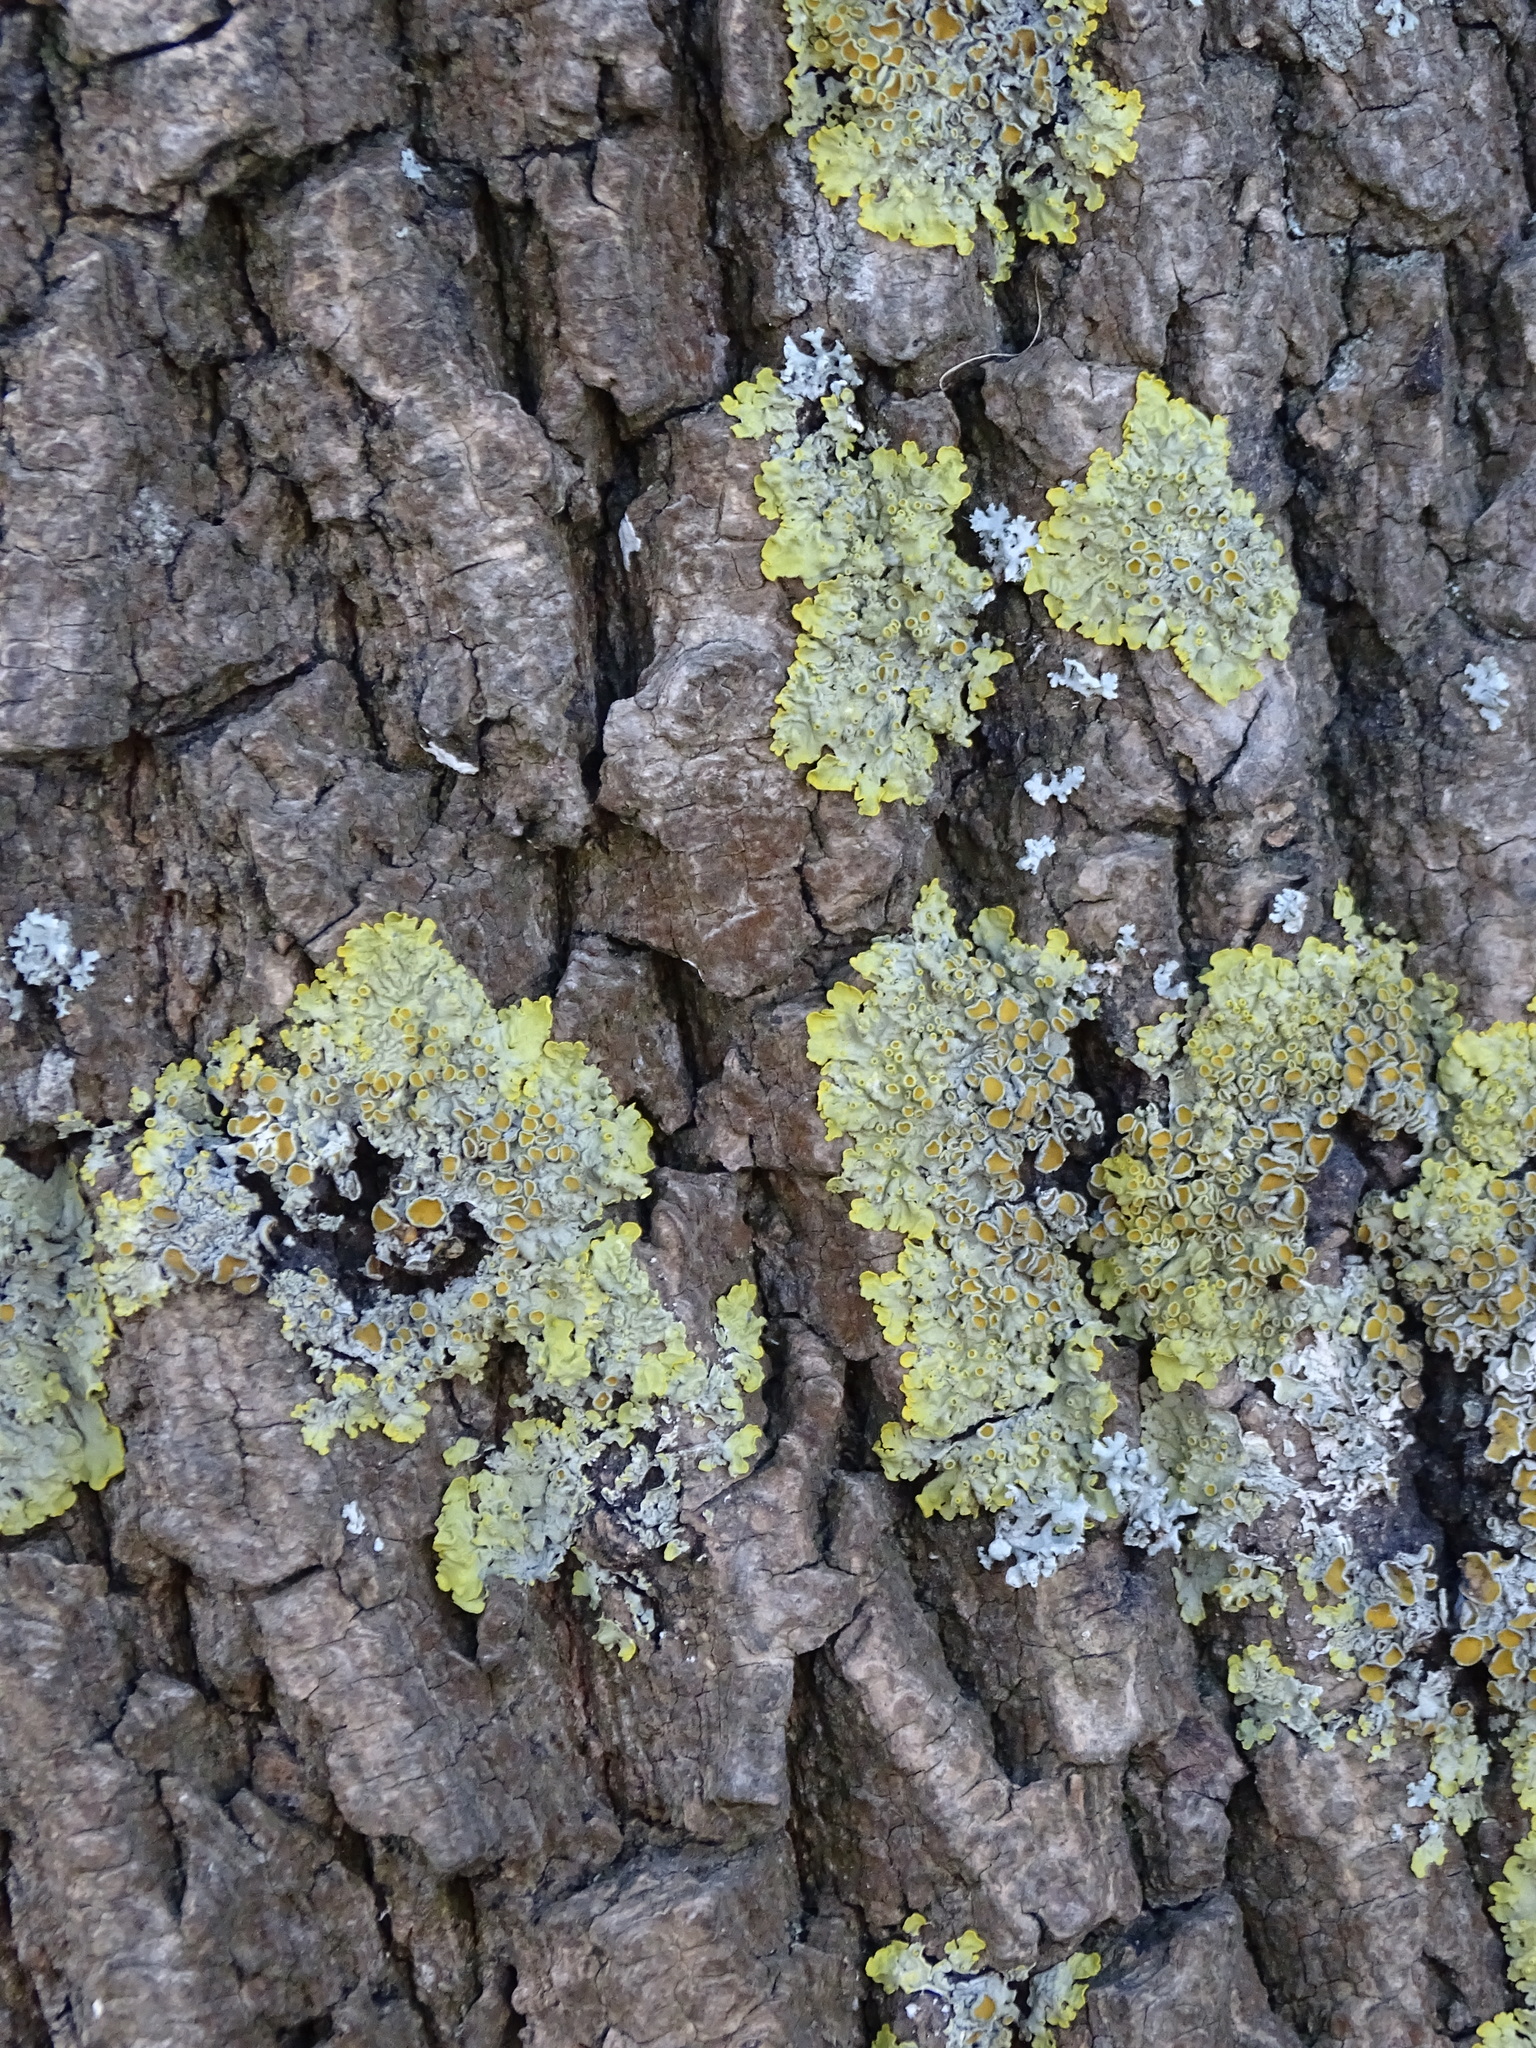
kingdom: Fungi
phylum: Ascomycota
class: Lecanoromycetes
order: Teloschistales
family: Teloschistaceae
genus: Xanthoria
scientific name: Xanthoria parietina
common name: Common orange lichen
